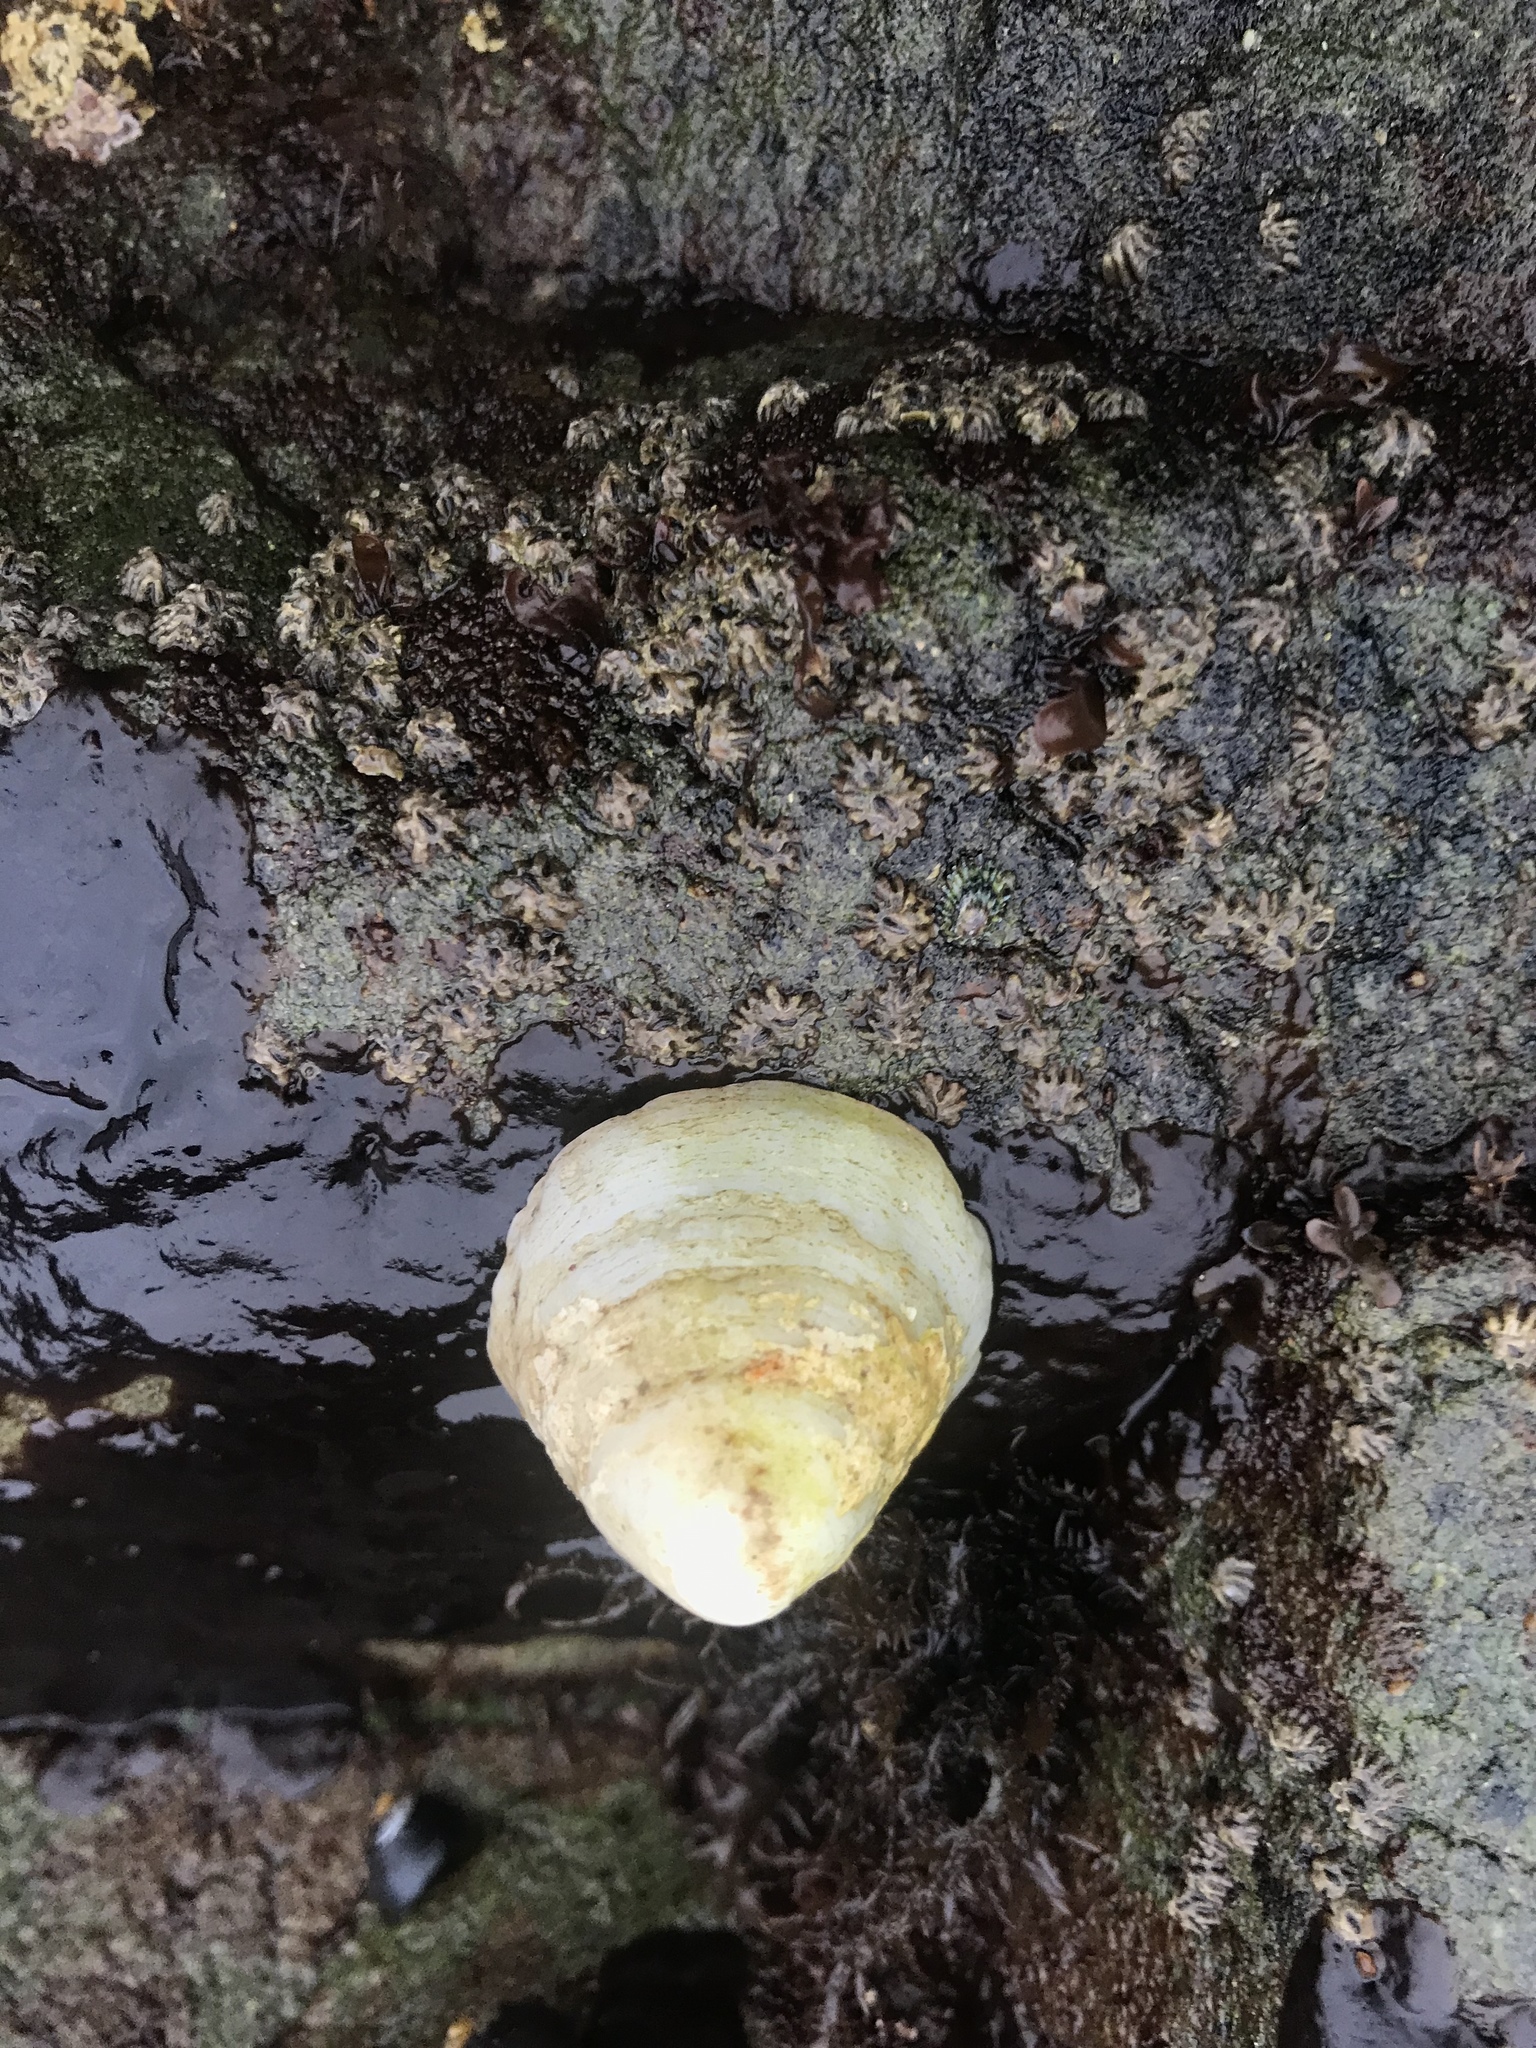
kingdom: Animalia
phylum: Mollusca
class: Gastropoda
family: Acmaeidae
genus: Acmaea
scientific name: Acmaea mitra
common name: Pacific white cap limpet
